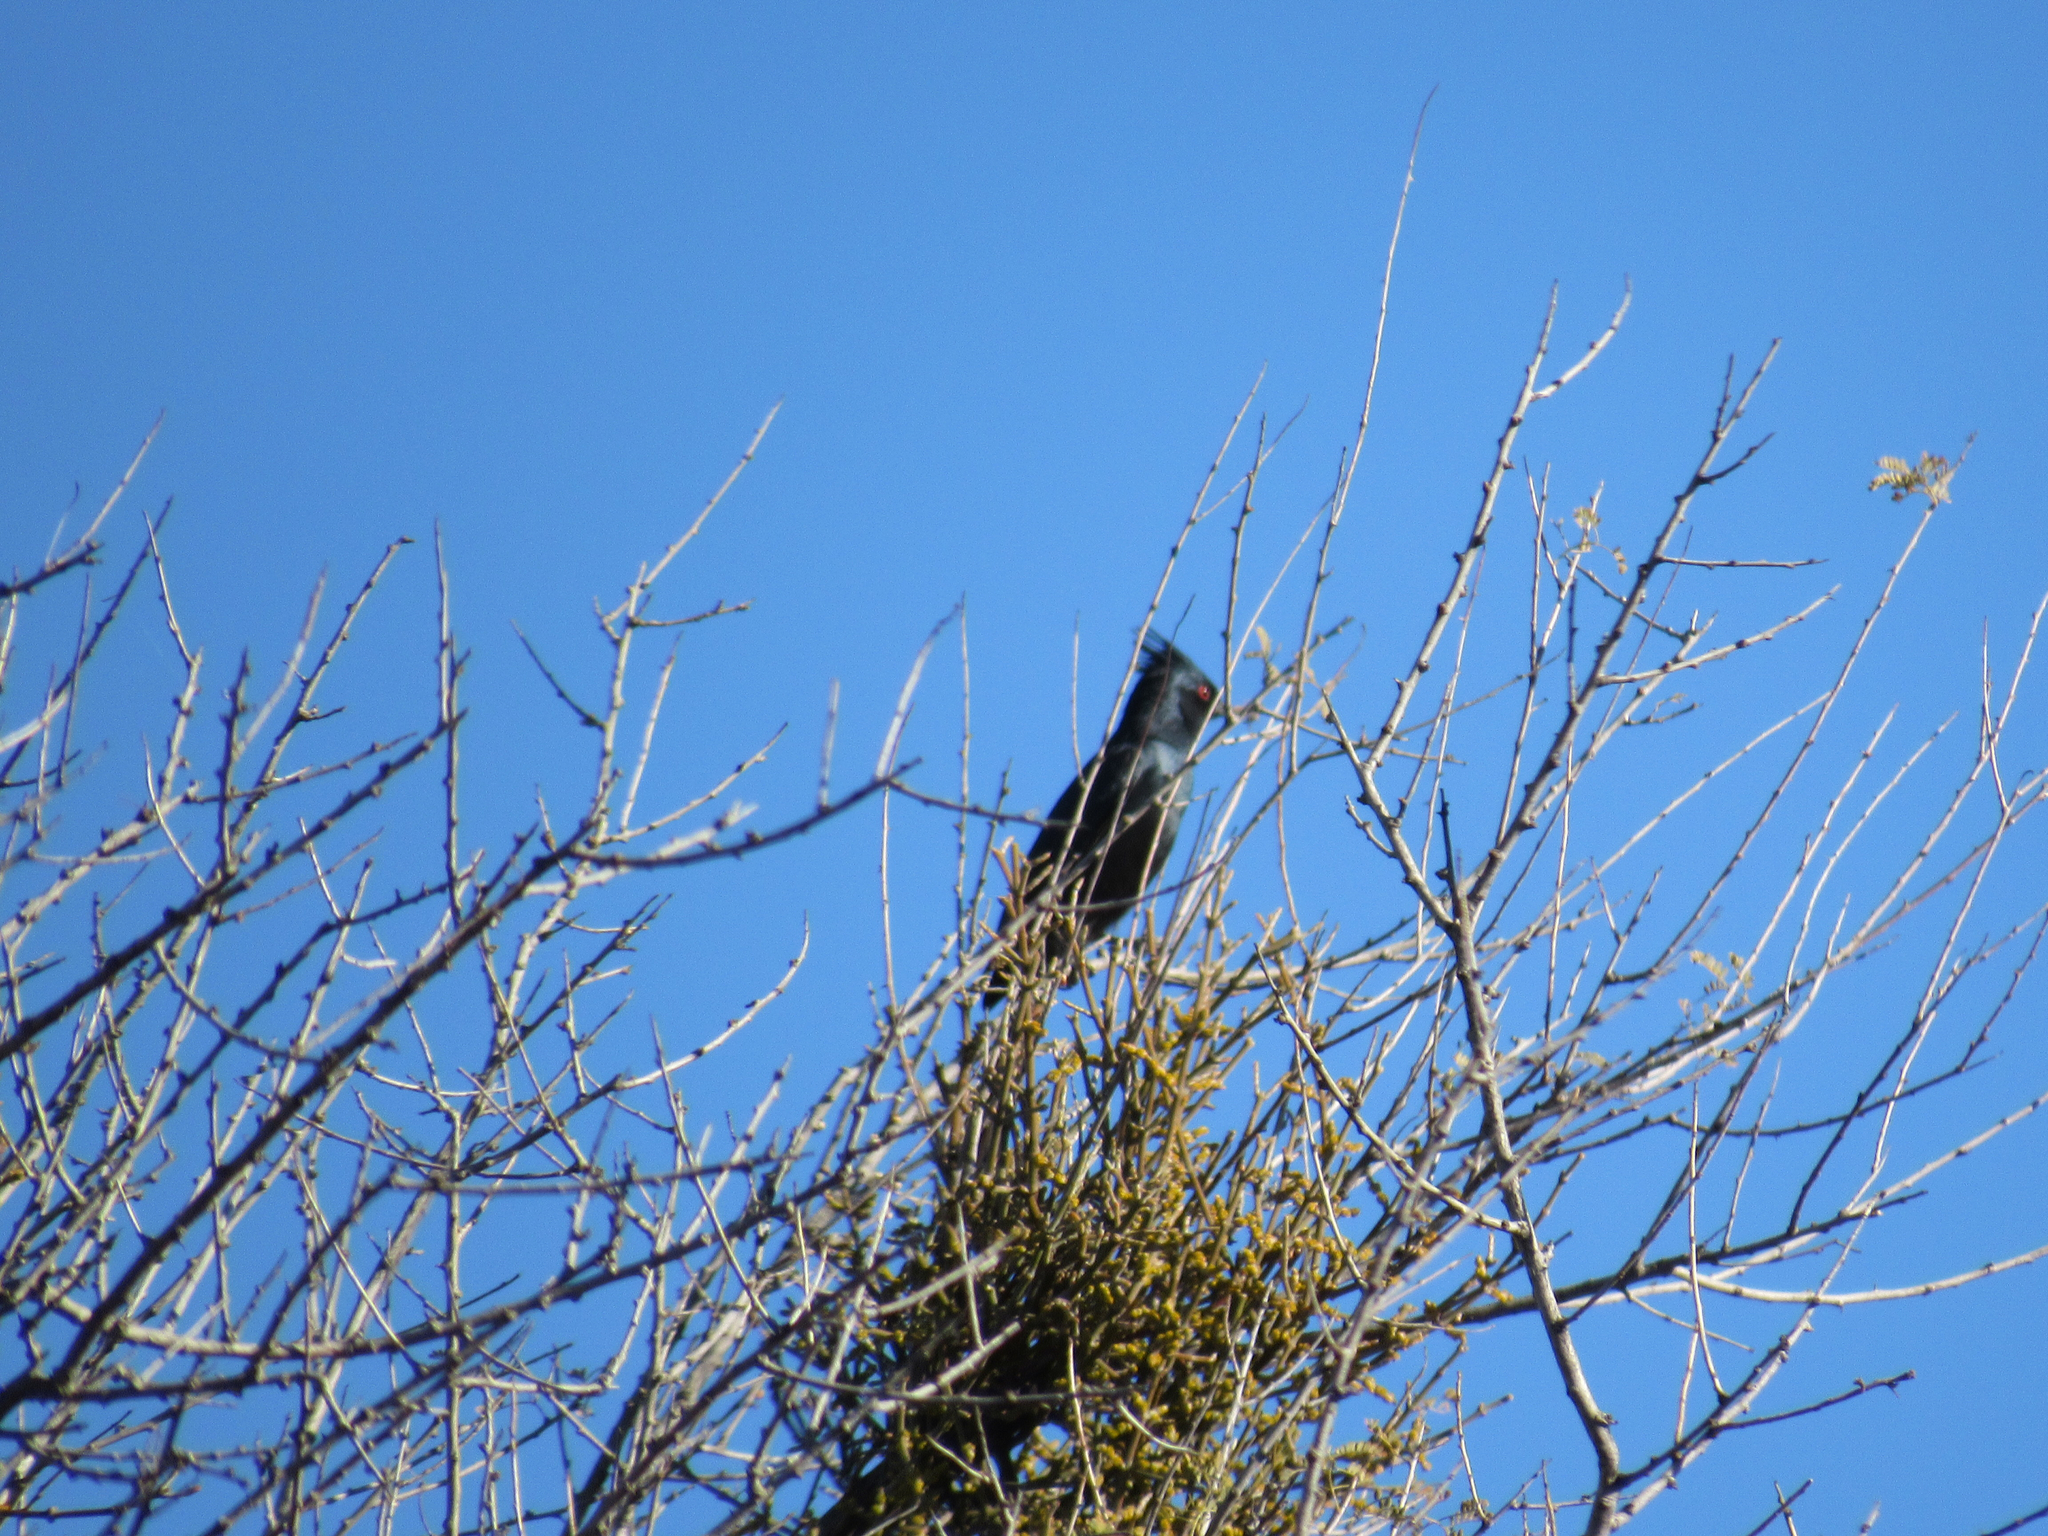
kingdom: Animalia
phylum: Chordata
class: Aves
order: Passeriformes
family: Ptilogonatidae
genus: Phainopepla
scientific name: Phainopepla nitens
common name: Phainopepla
